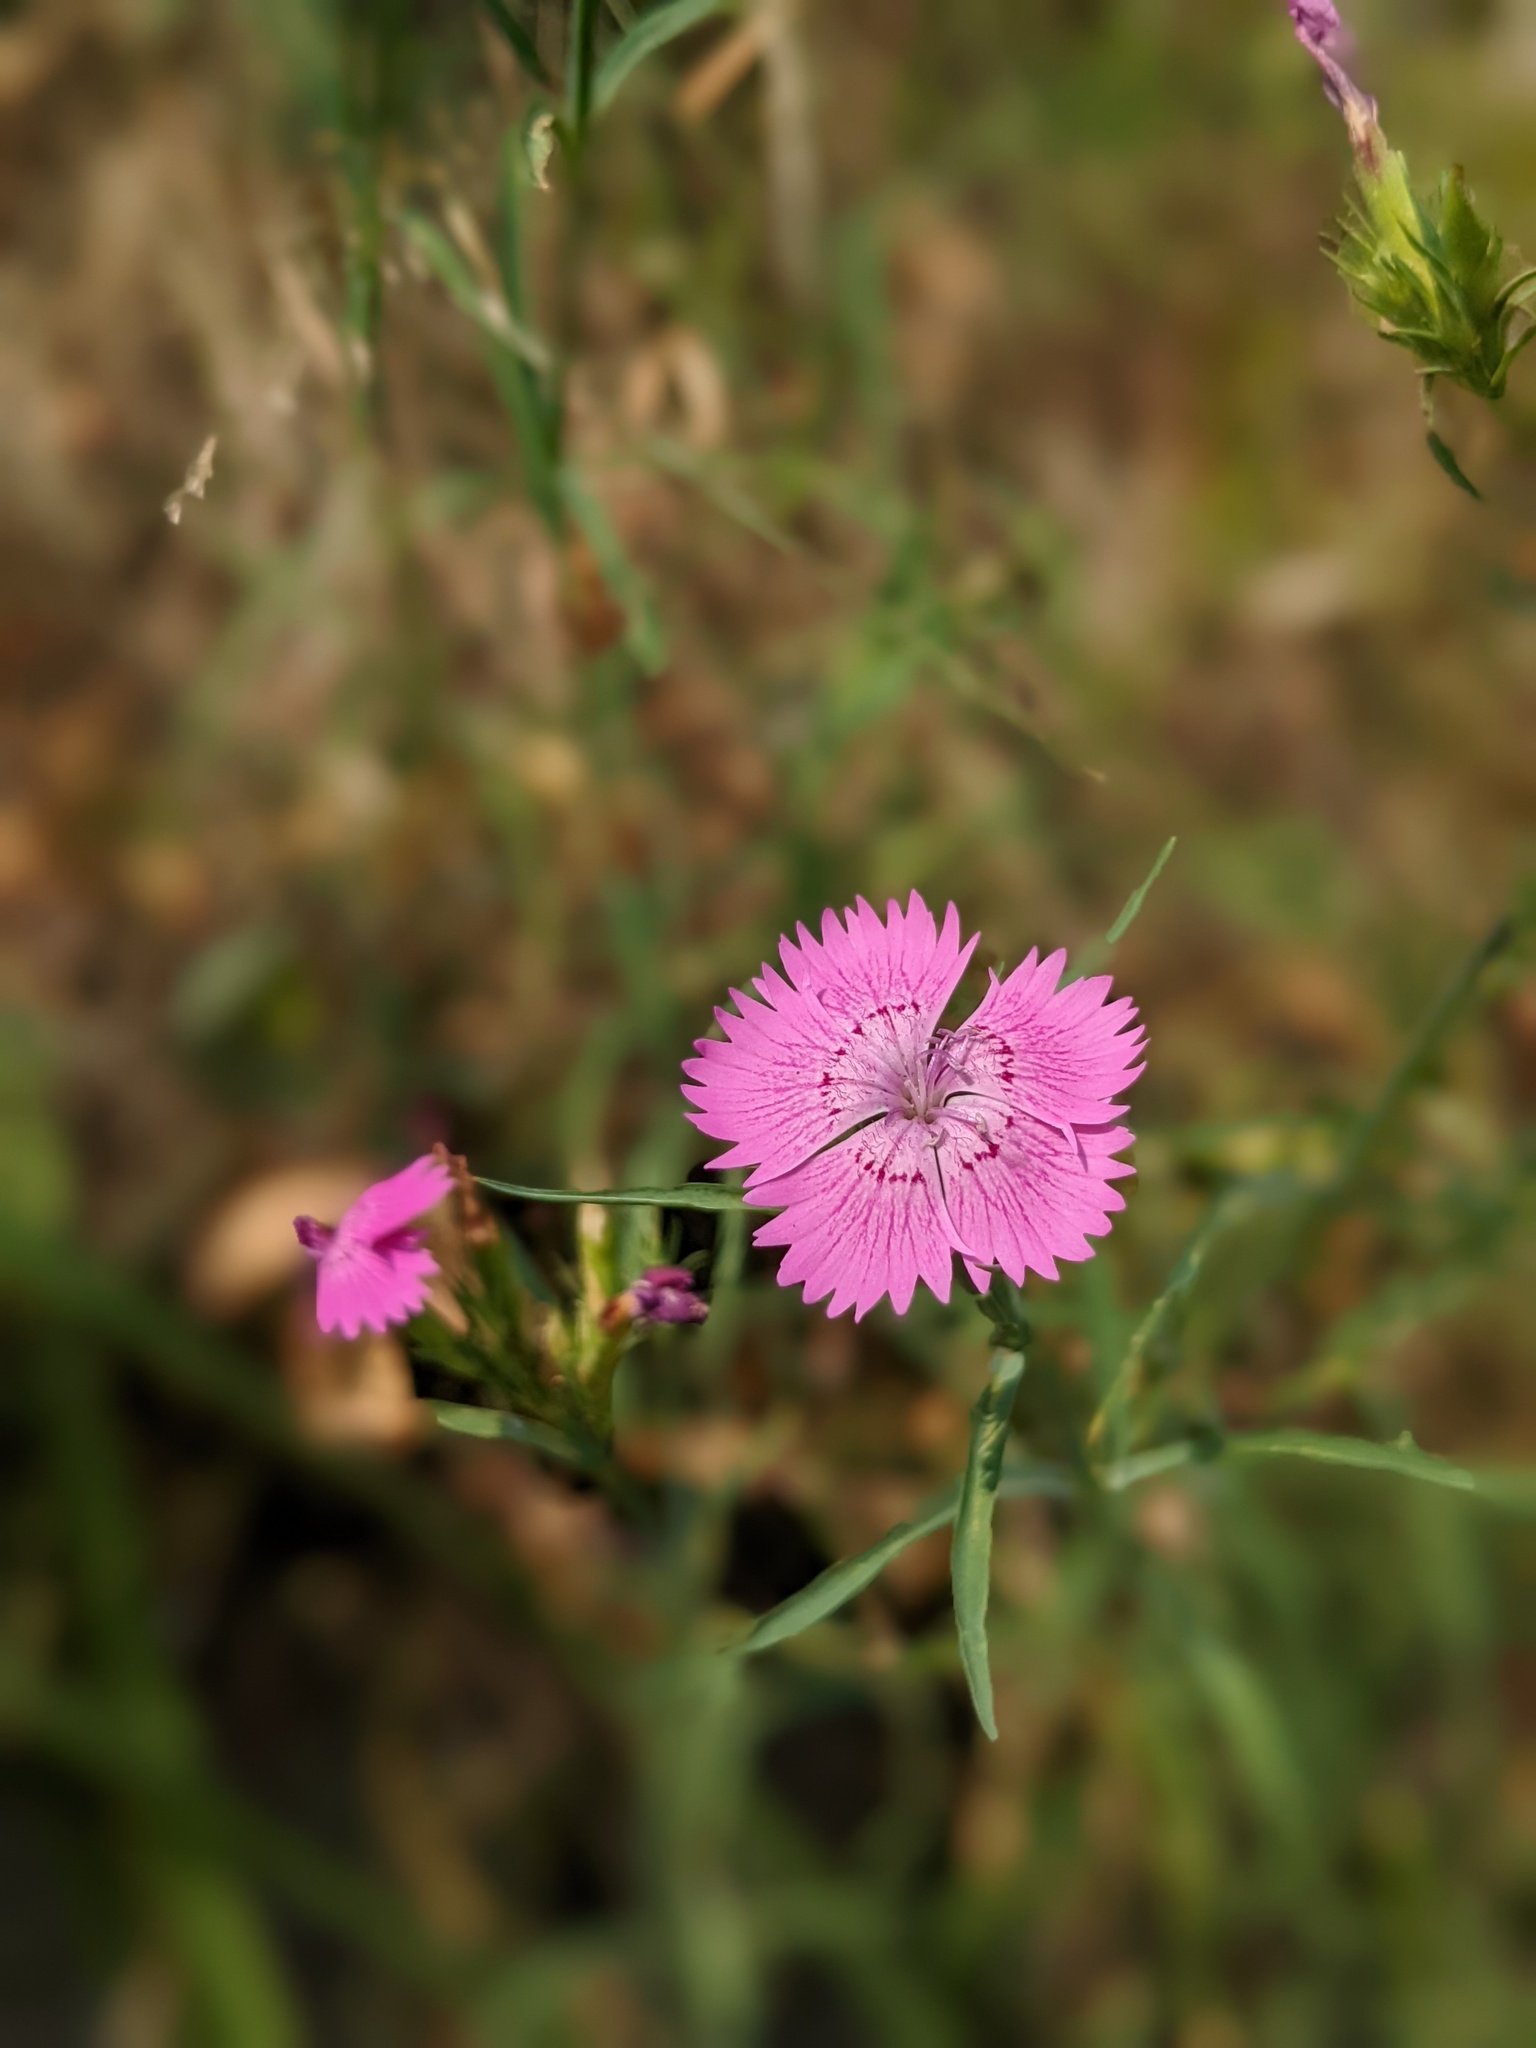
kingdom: Plantae
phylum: Tracheophyta
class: Magnoliopsida
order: Caryophyllales
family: Caryophyllaceae
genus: Dianthus
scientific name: Dianthus seguieri
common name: Ragged pink
